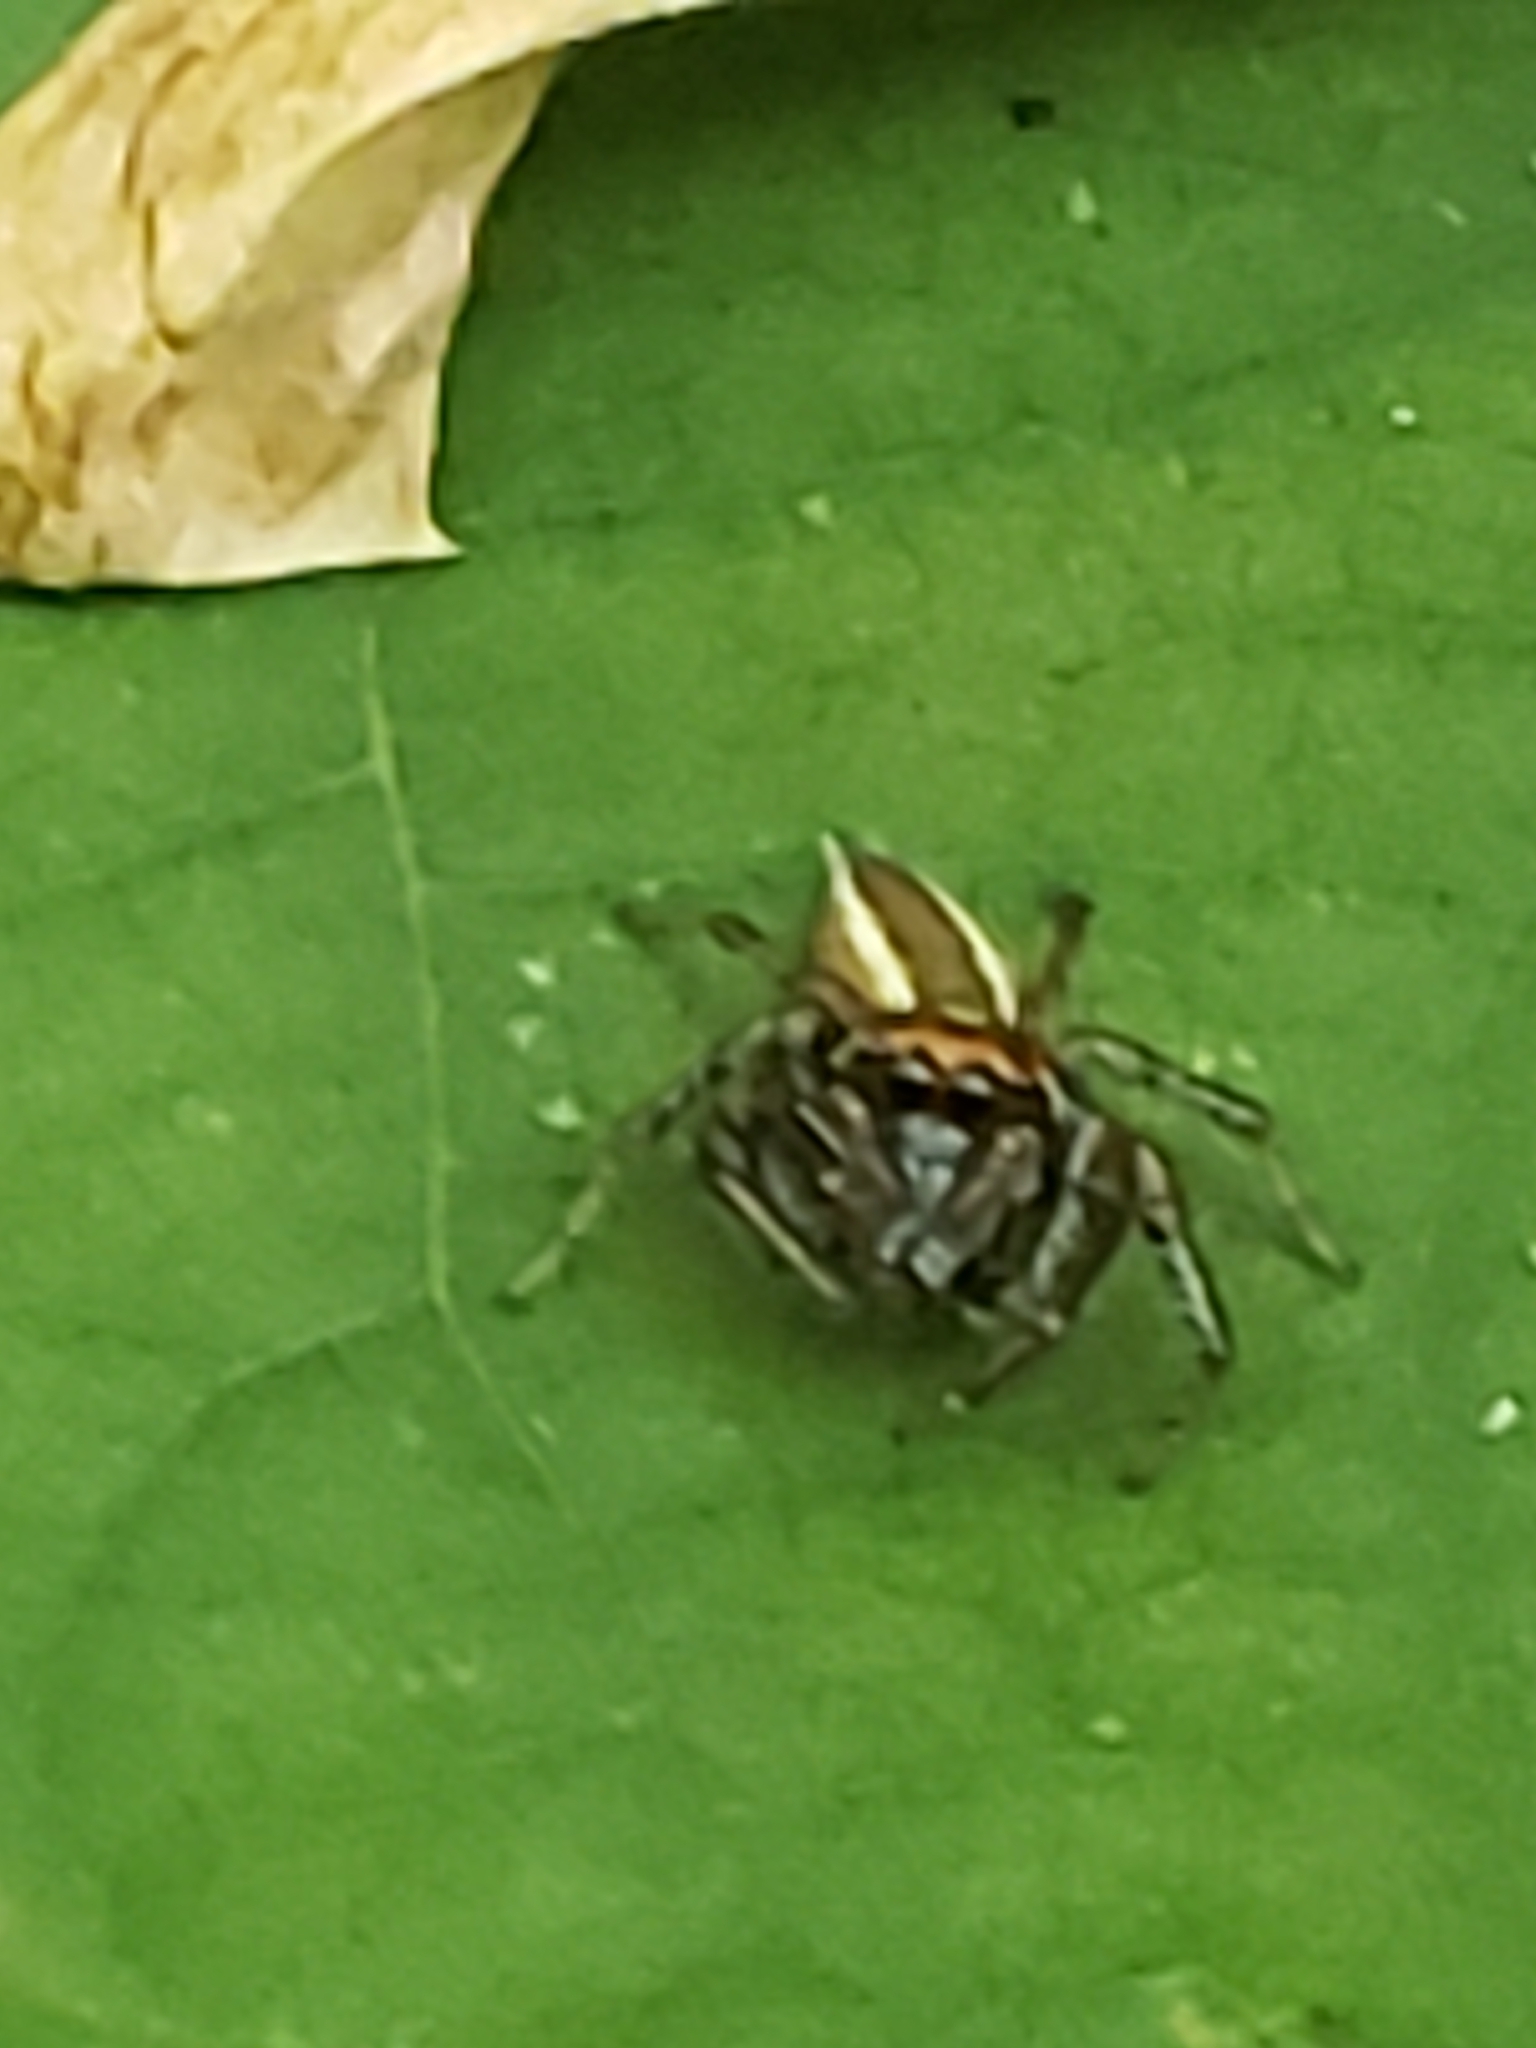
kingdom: Animalia
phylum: Arthropoda
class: Arachnida
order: Araneae
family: Salticidae
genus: Colonus
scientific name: Colonus sylvanus
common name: Jumping spiders
